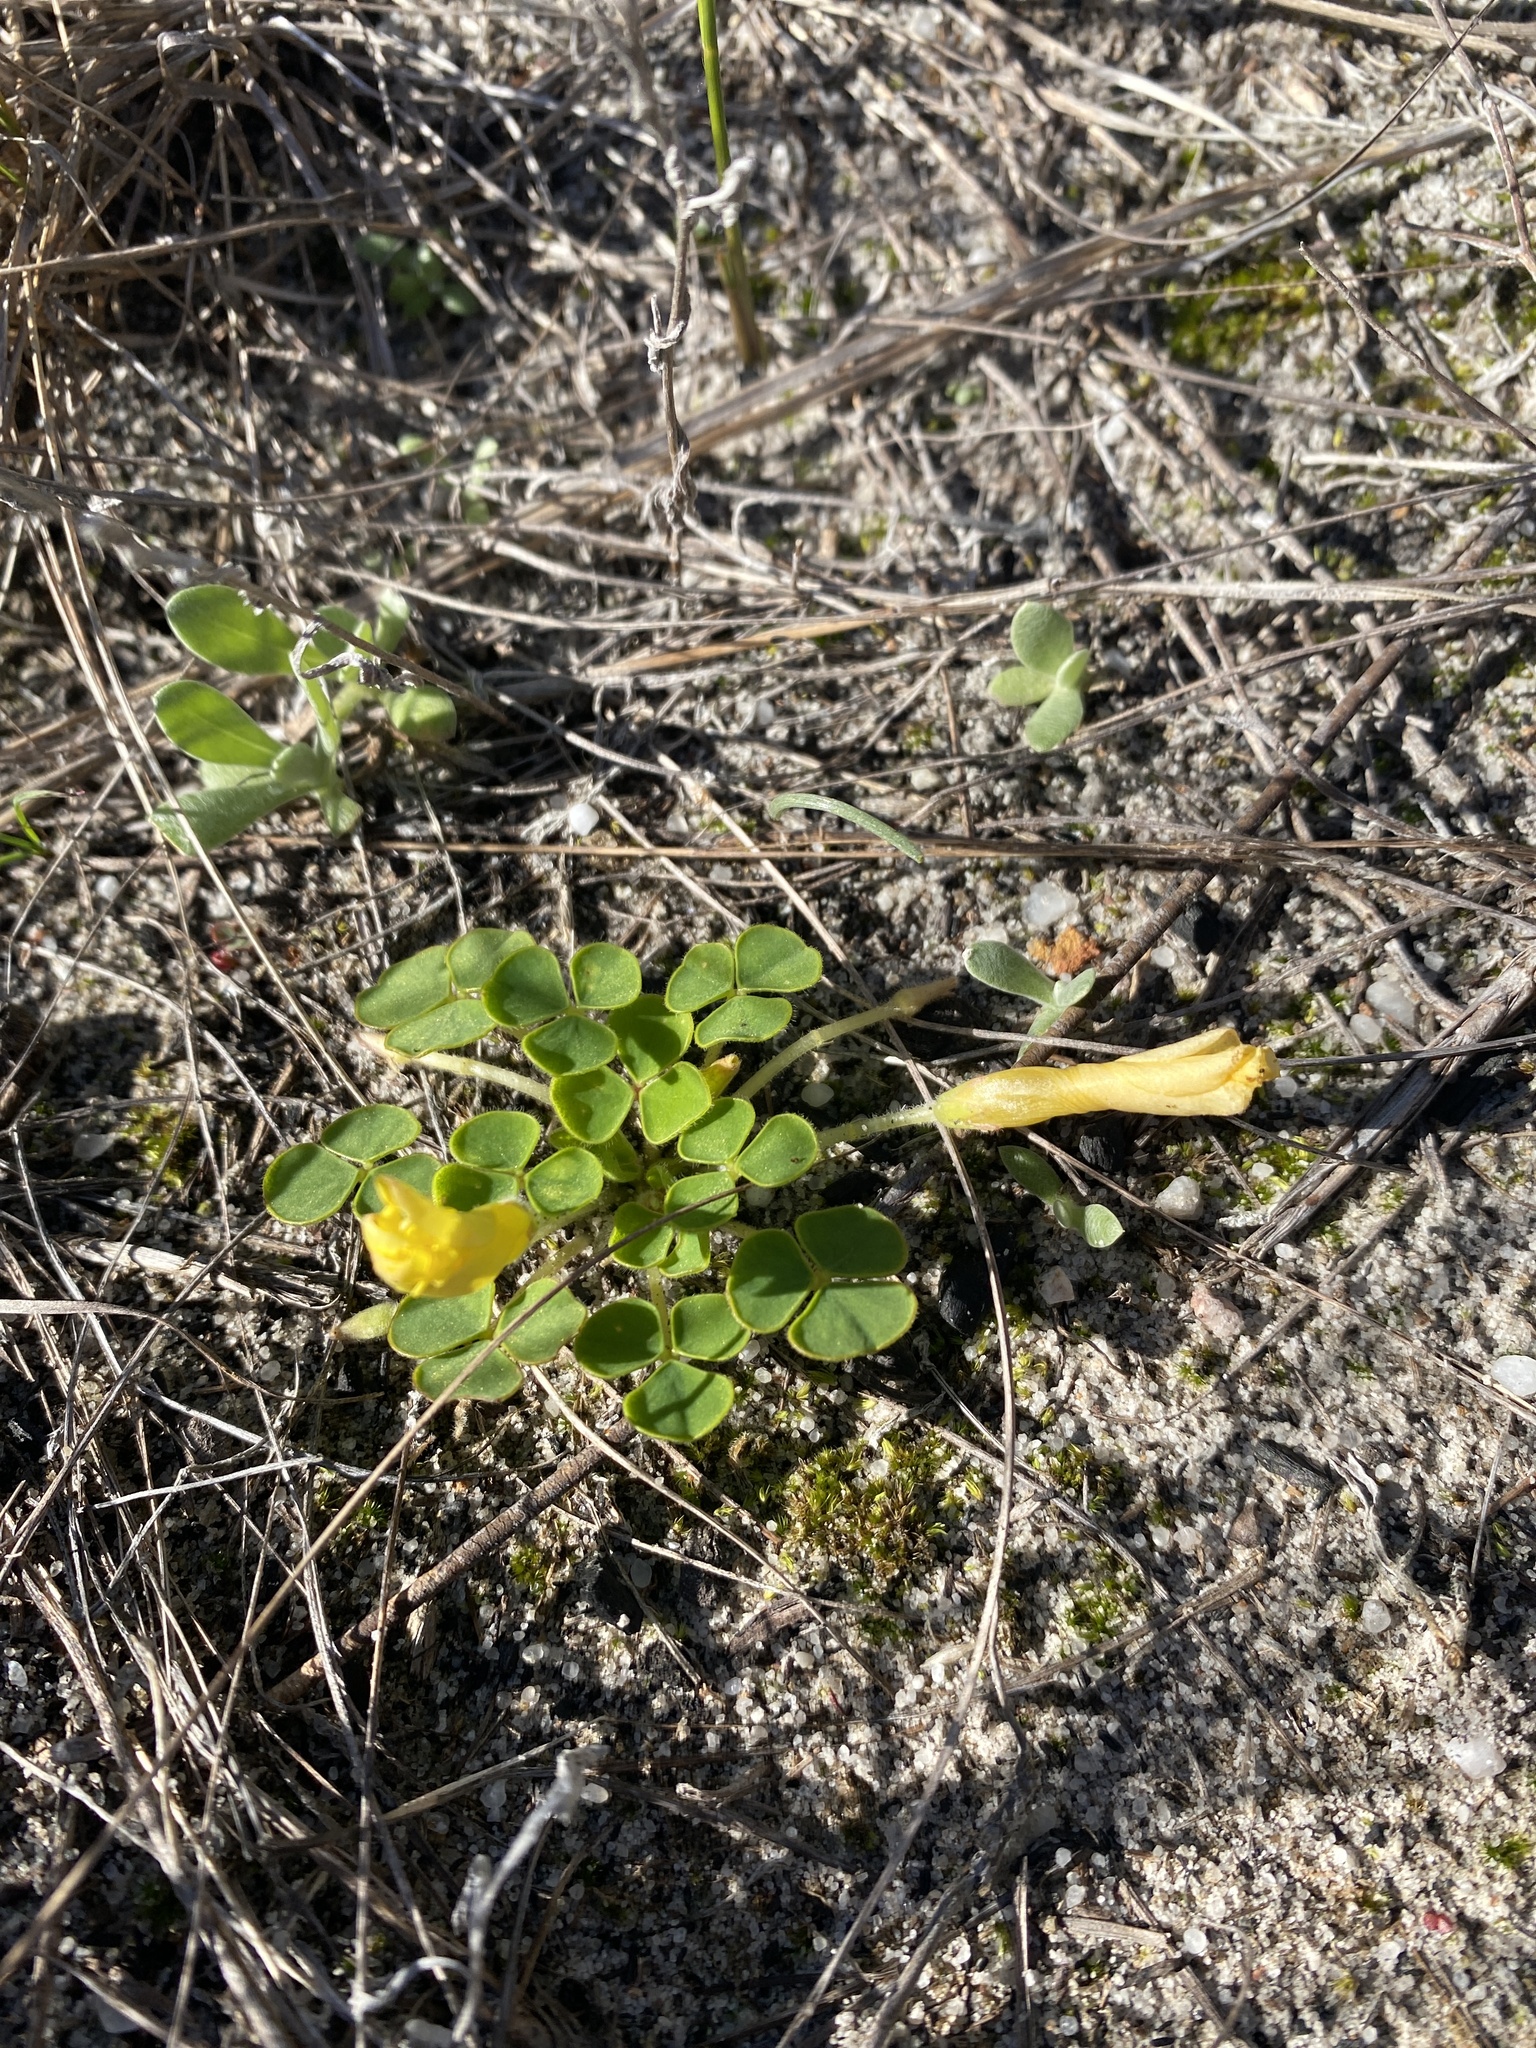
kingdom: Plantae
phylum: Tracheophyta
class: Magnoliopsida
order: Oxalidales
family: Oxalidaceae
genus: Oxalis
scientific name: Oxalis luteola
